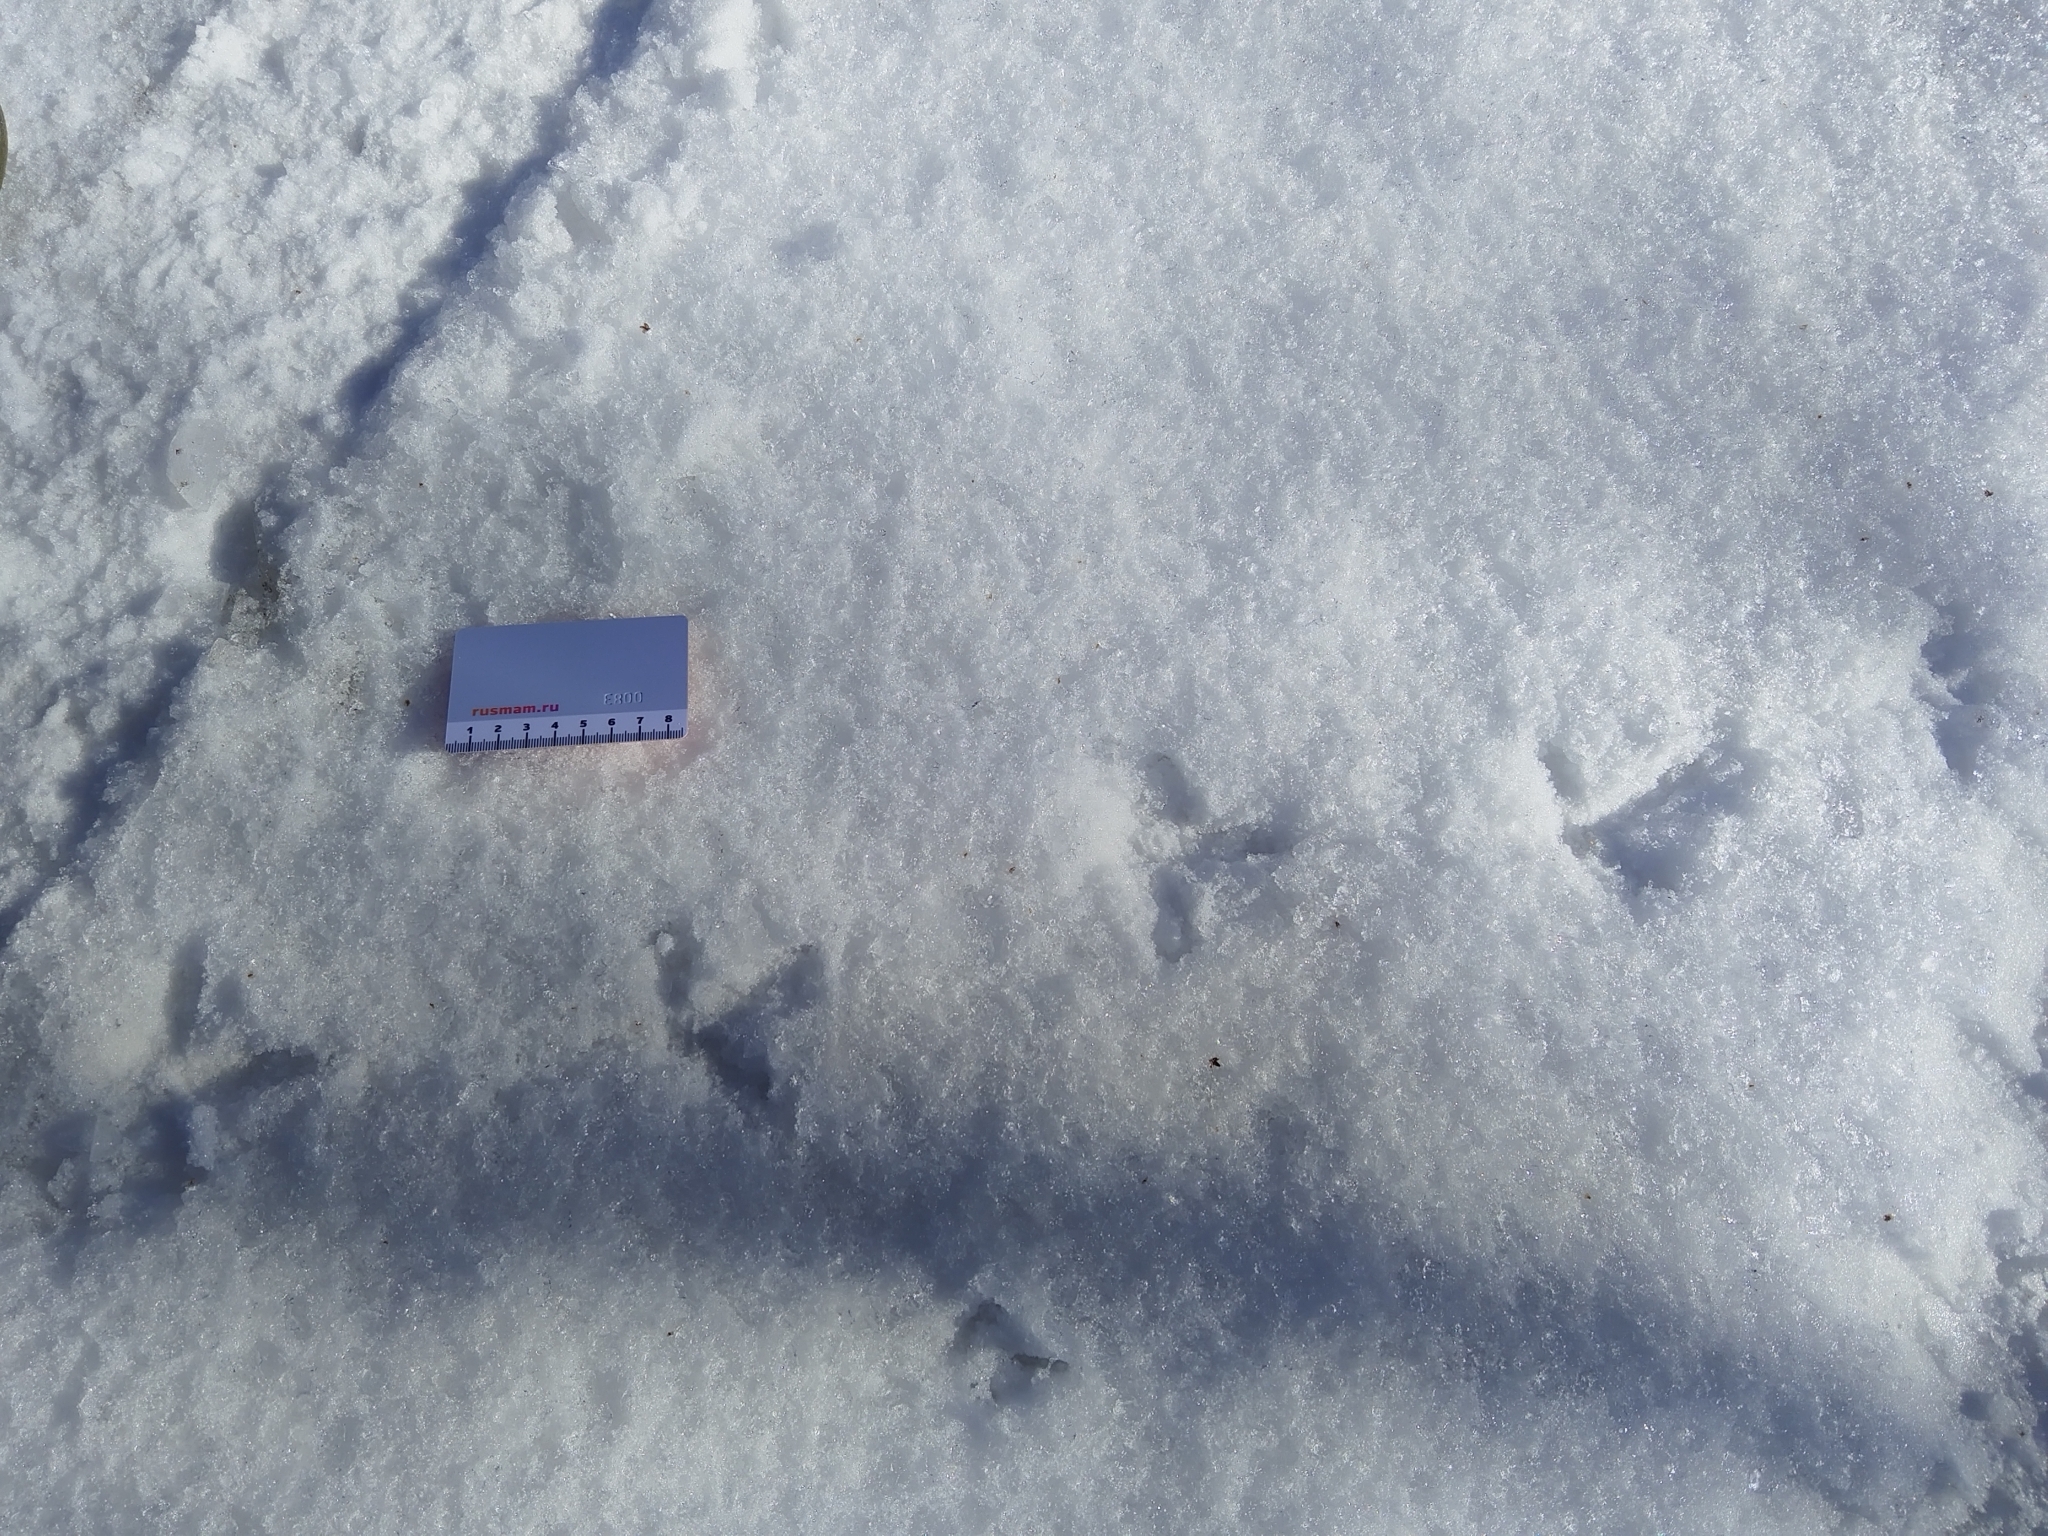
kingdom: Animalia
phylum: Chordata
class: Aves
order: Galliformes
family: Phasianidae
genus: Lyrurus
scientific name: Lyrurus tetrix
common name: Black grouse
